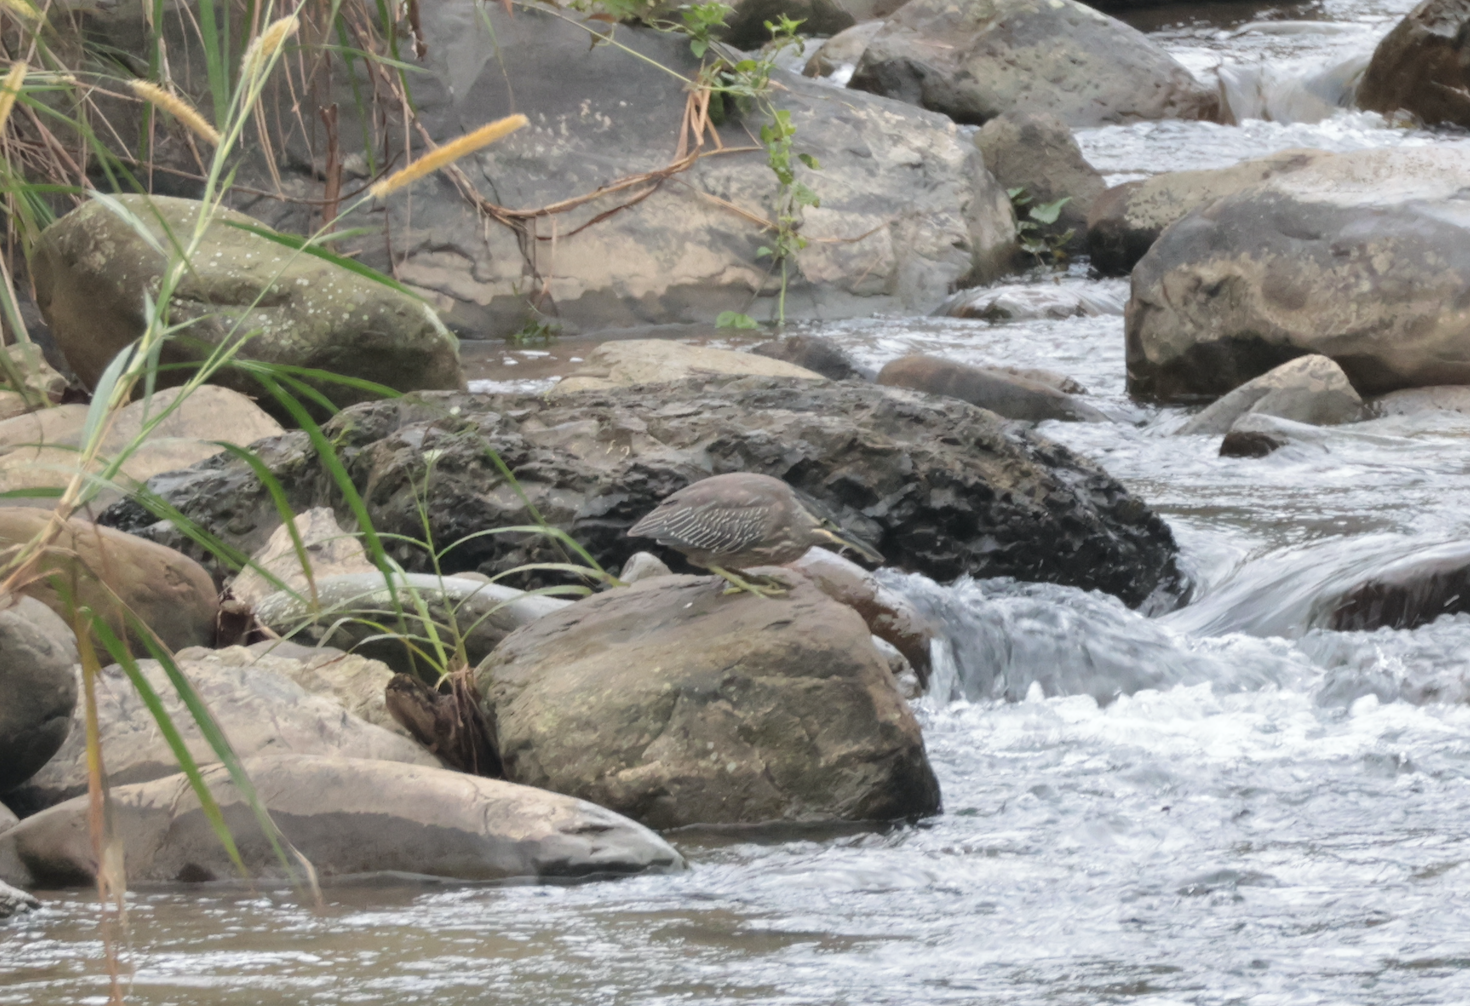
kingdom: Animalia
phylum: Chordata
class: Aves
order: Pelecaniformes
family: Ardeidae
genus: Butorides
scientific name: Butorides striata
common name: Striated heron
